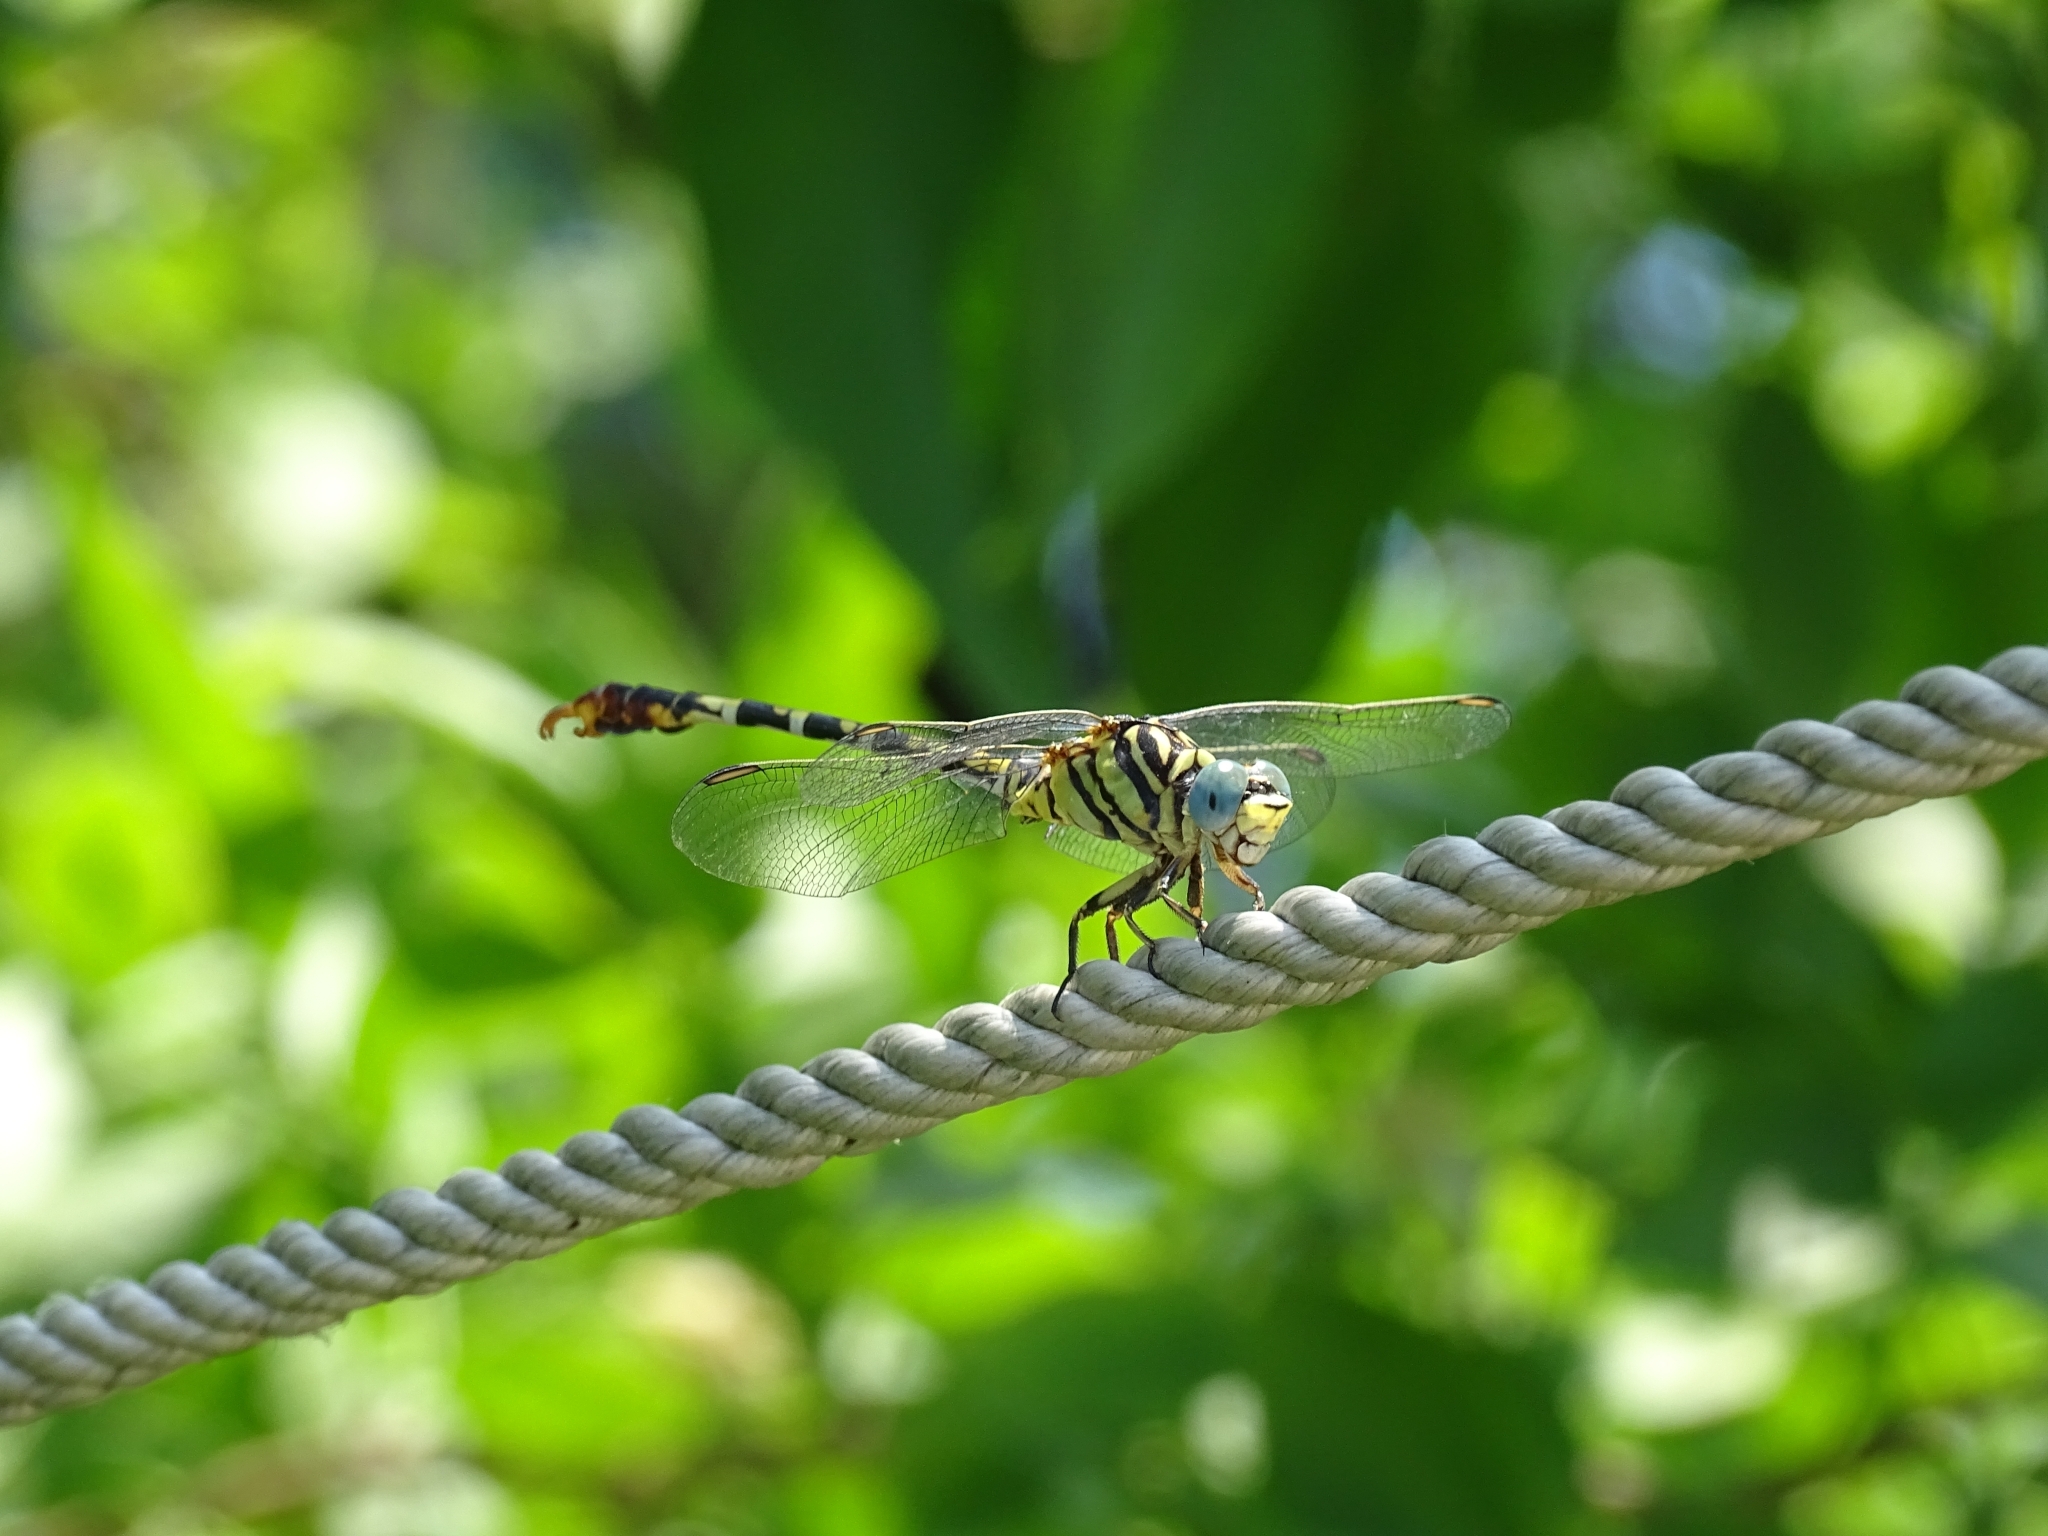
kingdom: Animalia
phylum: Arthropoda
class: Insecta
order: Odonata
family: Gomphidae
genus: Paragomphus
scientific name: Paragomphus lineatus
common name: Lined hooktail
